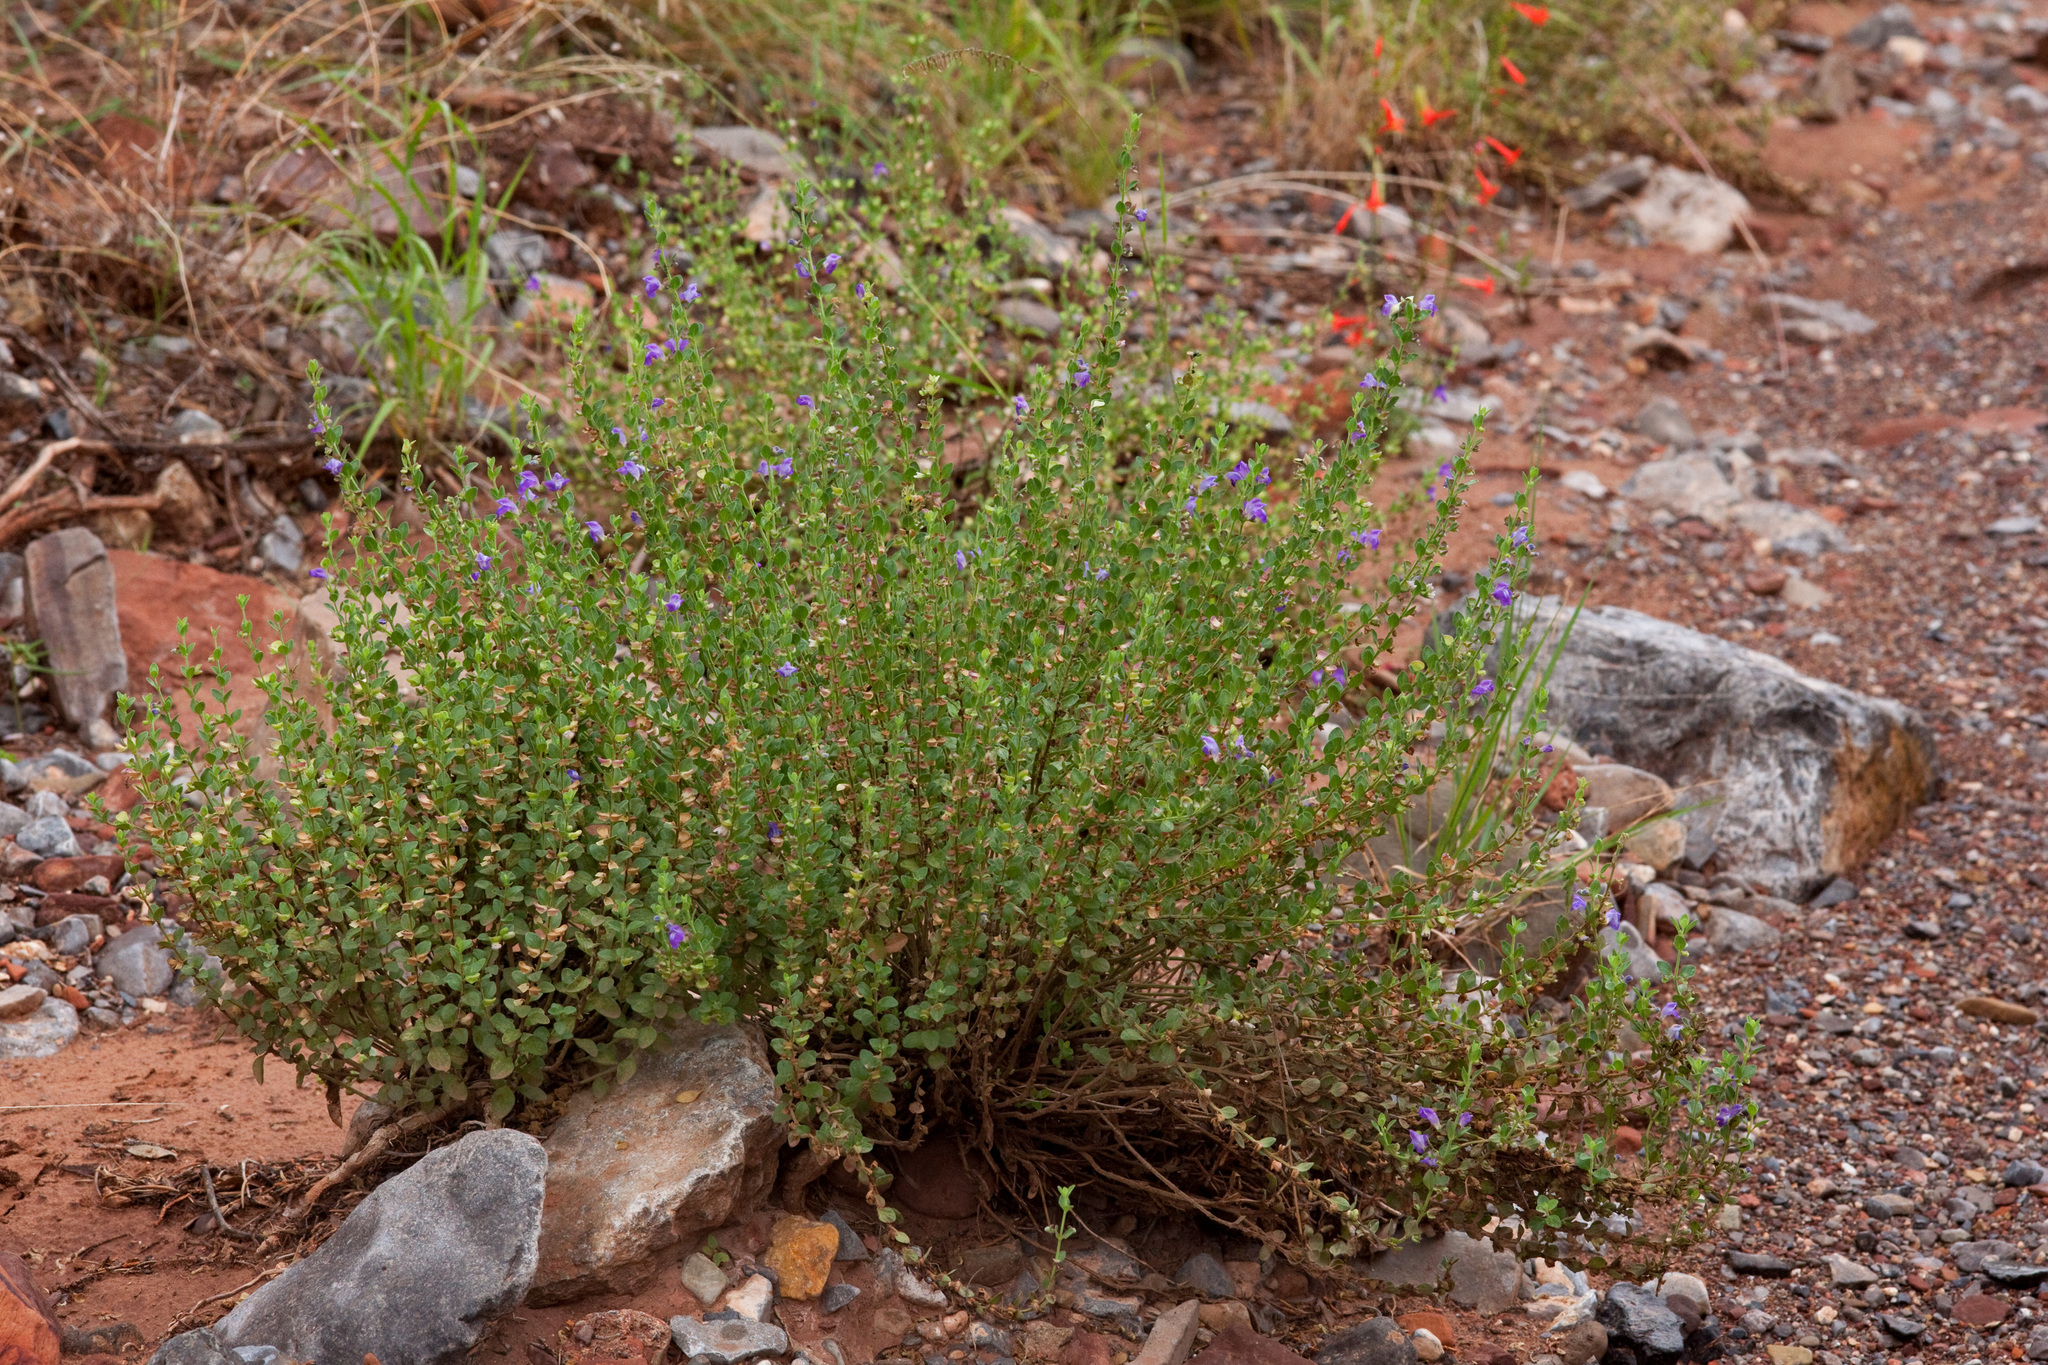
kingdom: Plantae
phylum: Tracheophyta
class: Magnoliopsida
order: Lamiales
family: Lamiaceae
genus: Scutellaria
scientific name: Scutellaria potosina
